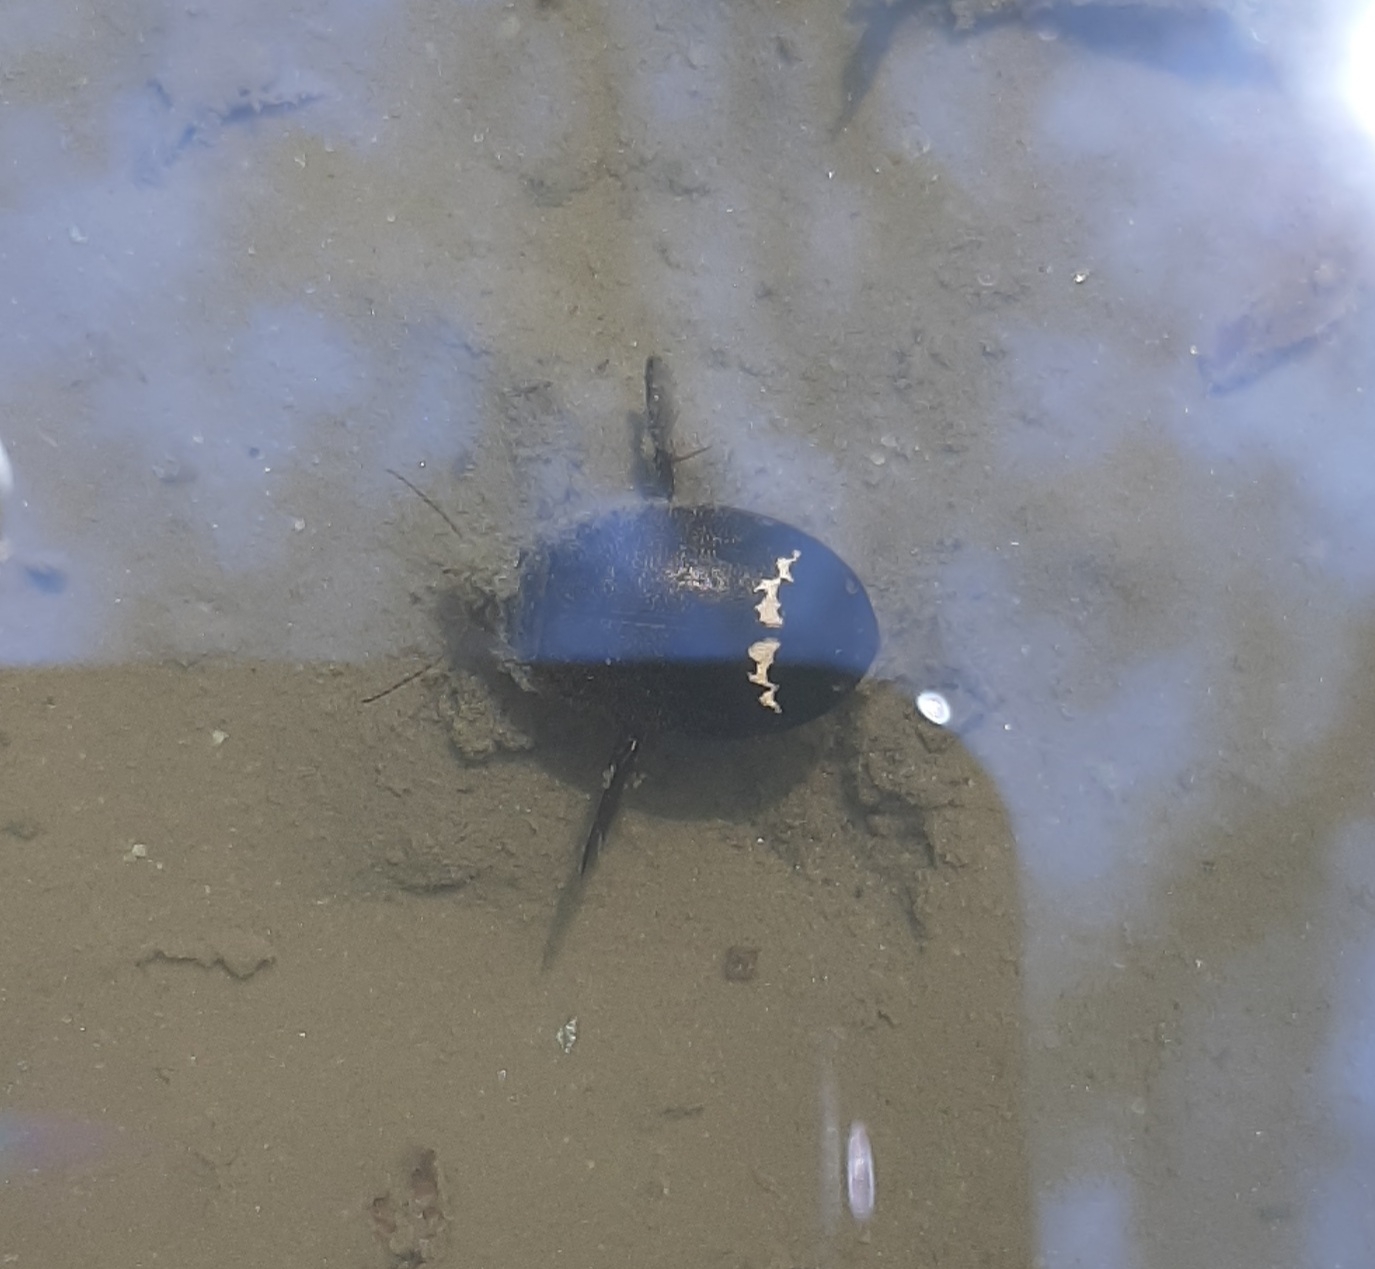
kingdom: Animalia
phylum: Arthropoda
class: Insecta
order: Coleoptera
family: Dytiscidae
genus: Acilius
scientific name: Acilius mediatus
